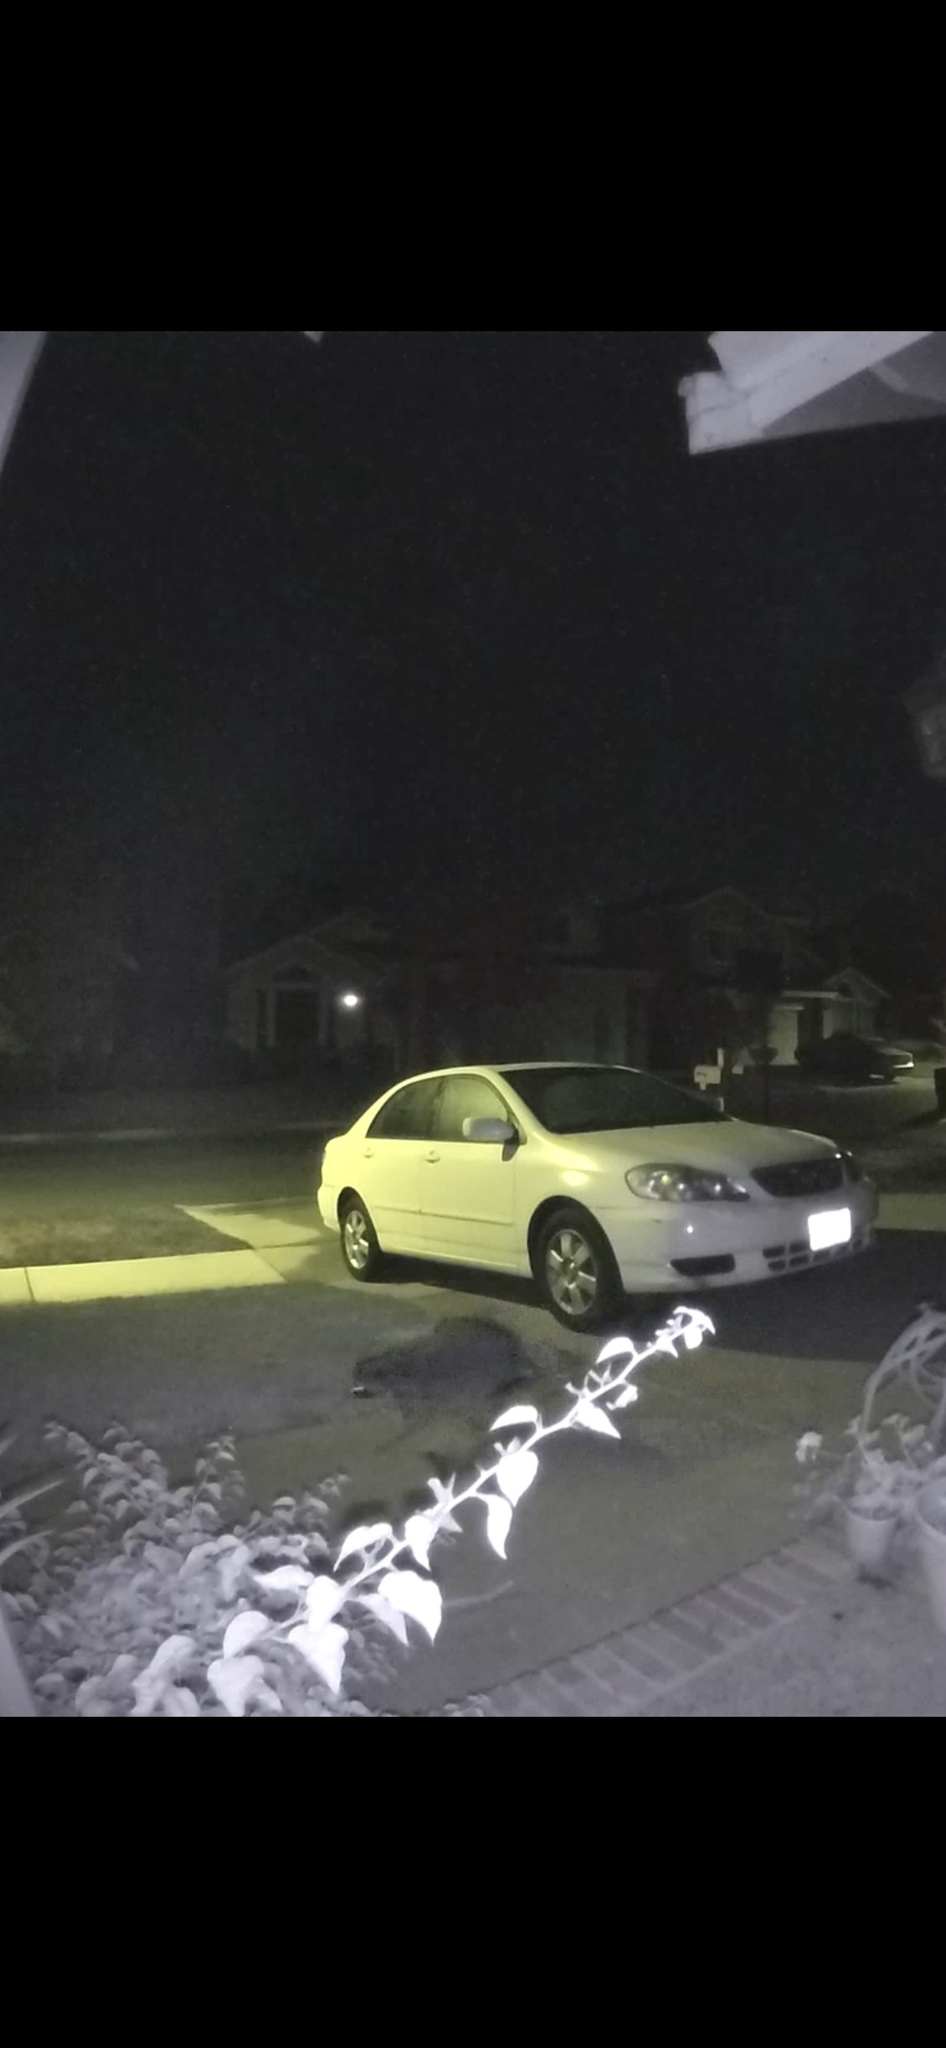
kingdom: Animalia
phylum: Chordata
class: Mammalia
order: Carnivora
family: Procyonidae
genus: Procyon
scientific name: Procyon lotor
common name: Raccoon
